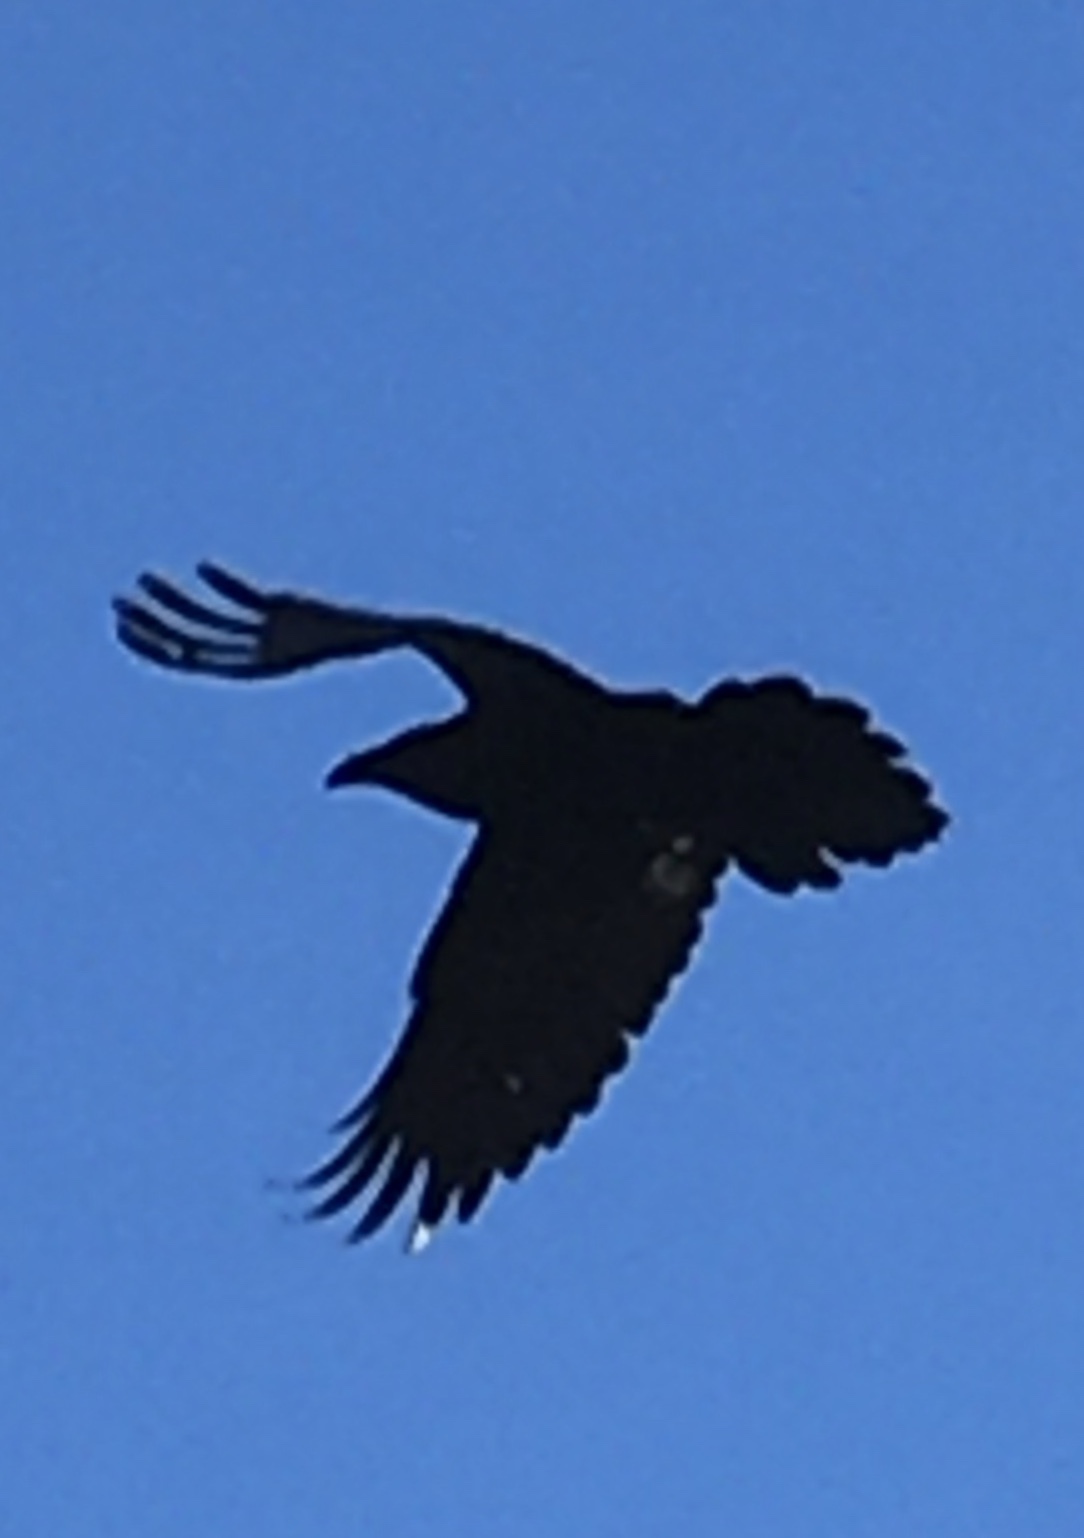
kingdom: Animalia
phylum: Chordata
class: Aves
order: Passeriformes
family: Corvidae
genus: Corvus
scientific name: Corvus corax
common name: Common raven
